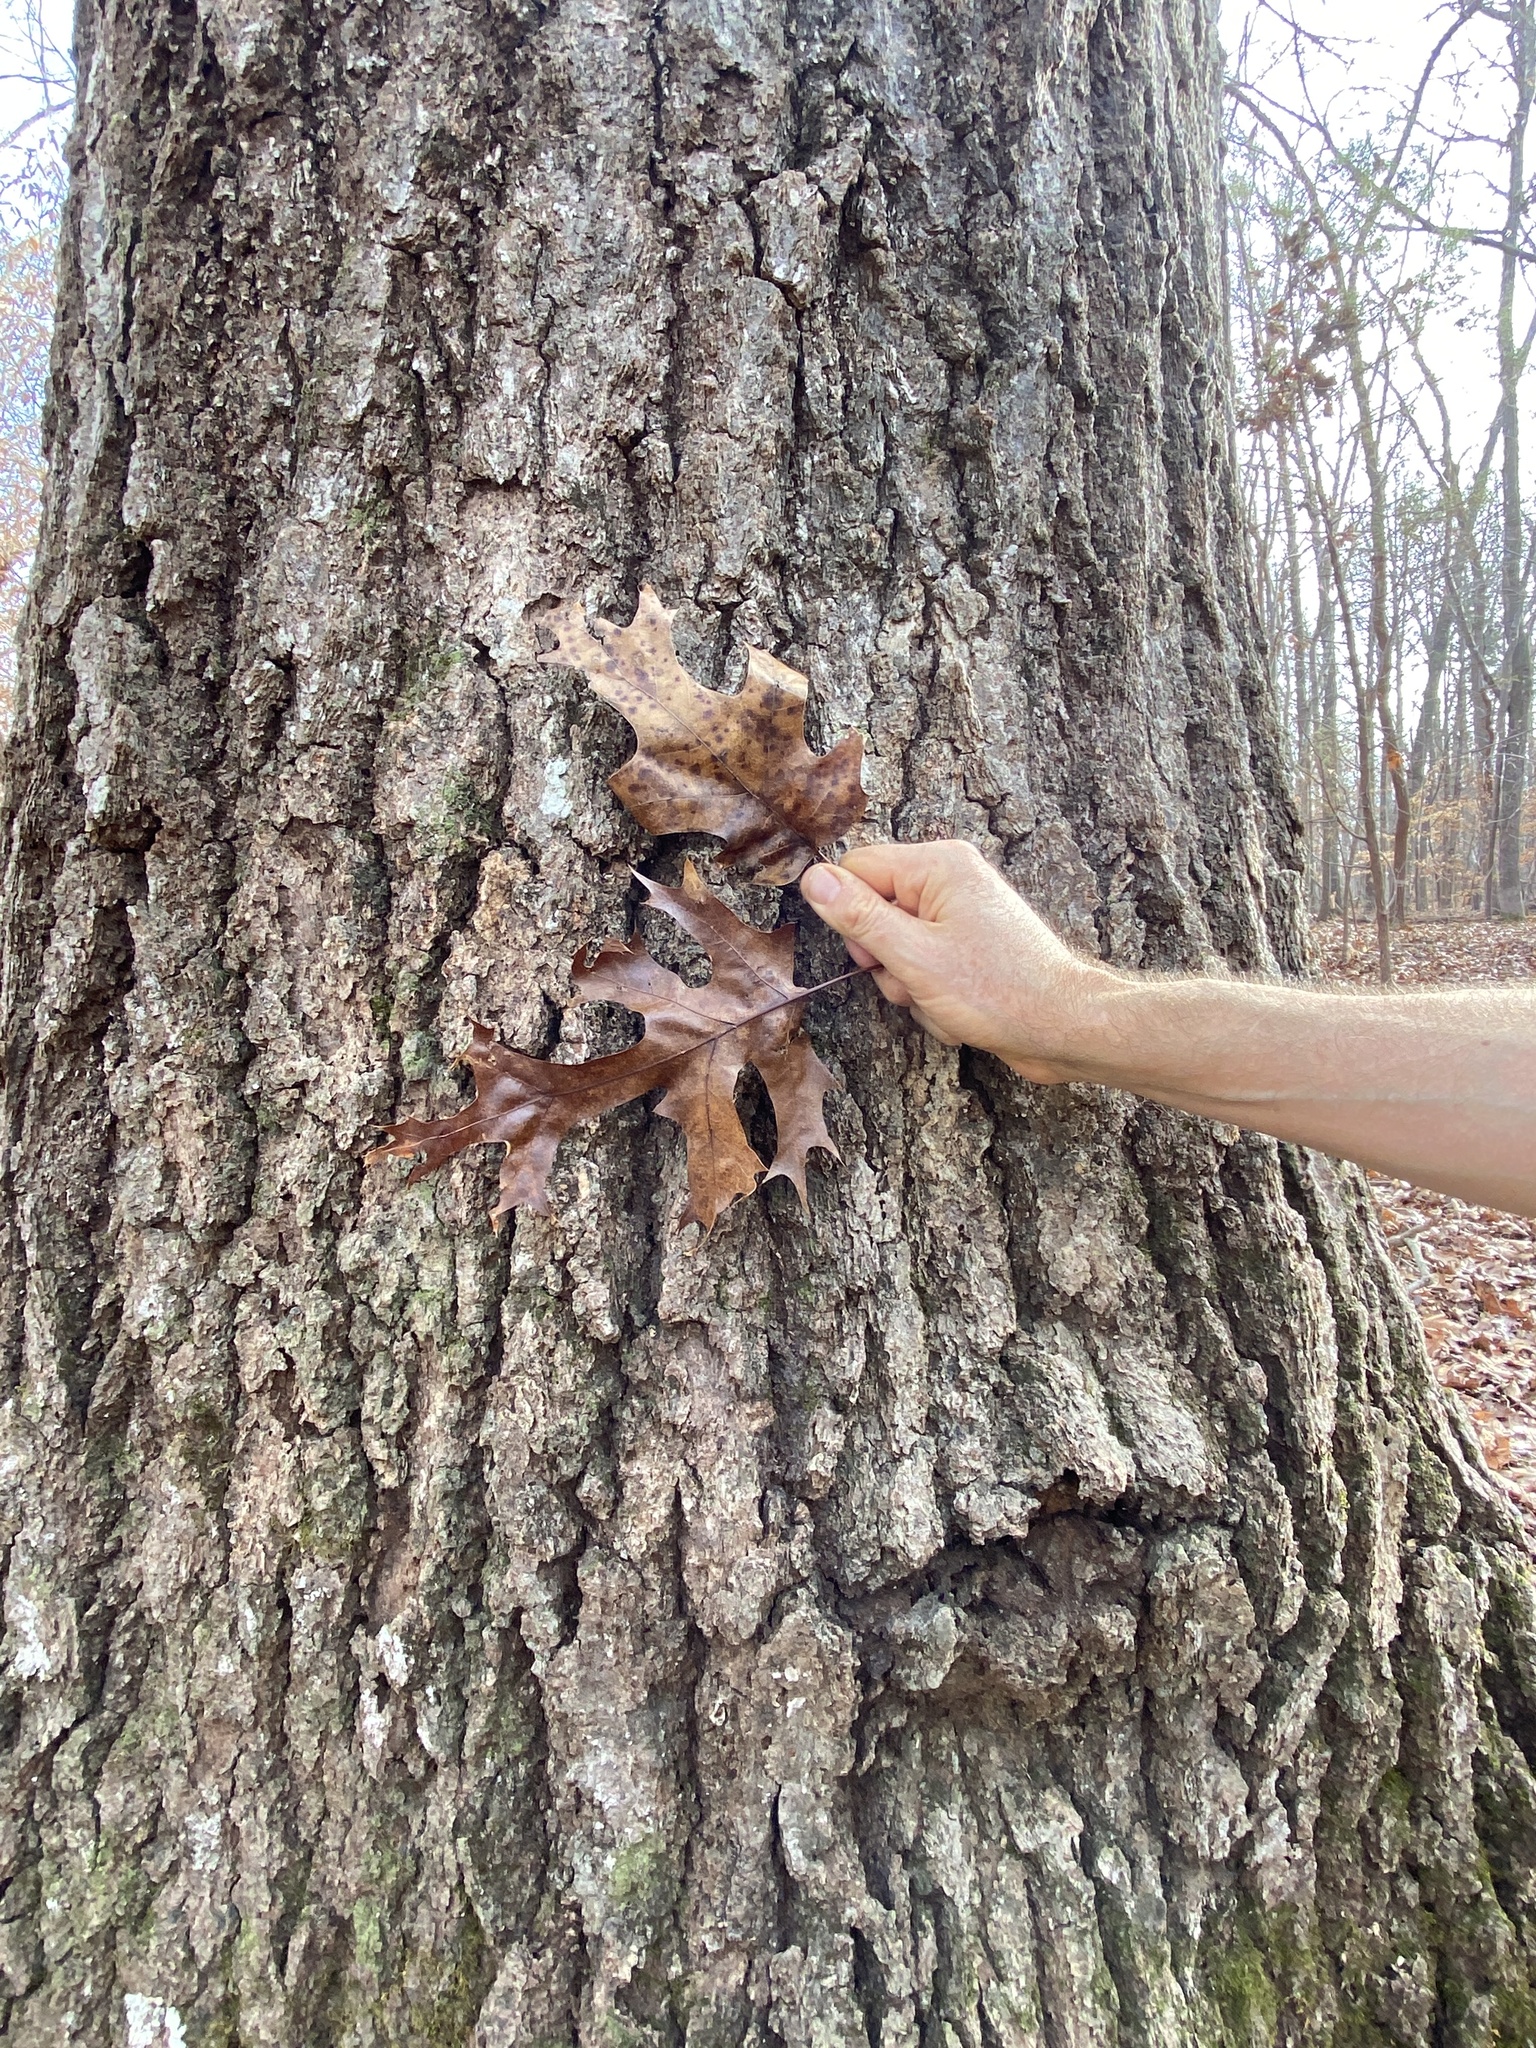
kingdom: Plantae
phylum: Tracheophyta
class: Magnoliopsida
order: Fagales
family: Fagaceae
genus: Quercus
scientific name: Quercus coccinea
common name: Scarlet oak
